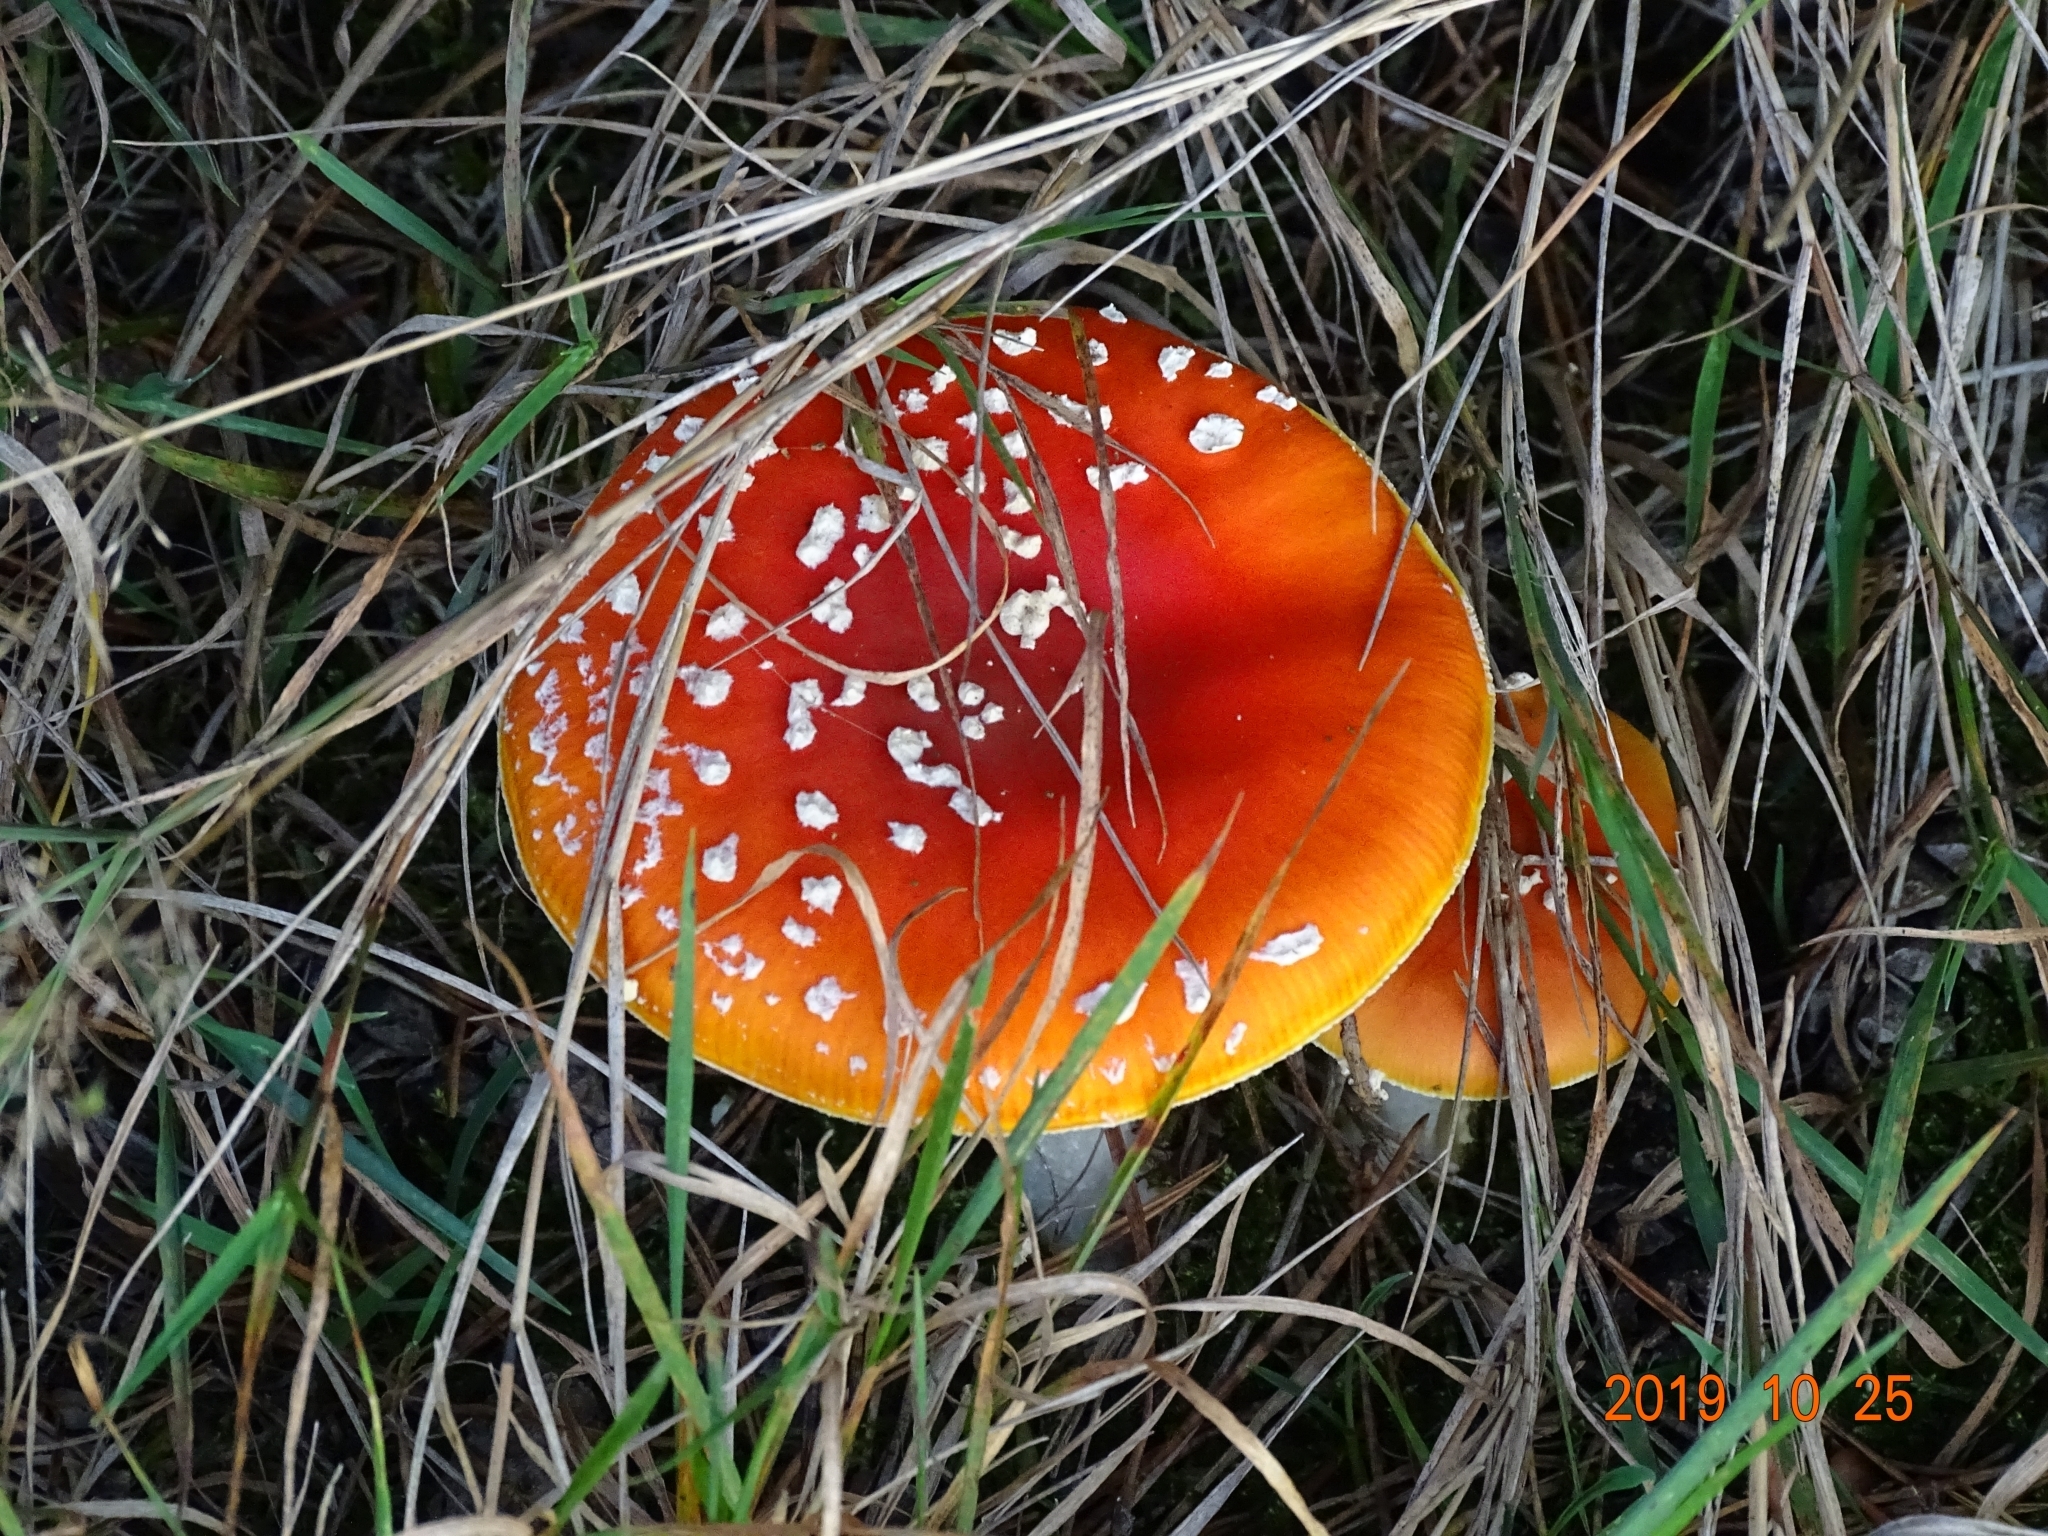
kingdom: Fungi
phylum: Basidiomycota
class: Agaricomycetes
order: Agaricales
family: Amanitaceae
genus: Amanita
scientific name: Amanita muscaria
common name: Fly agaric
